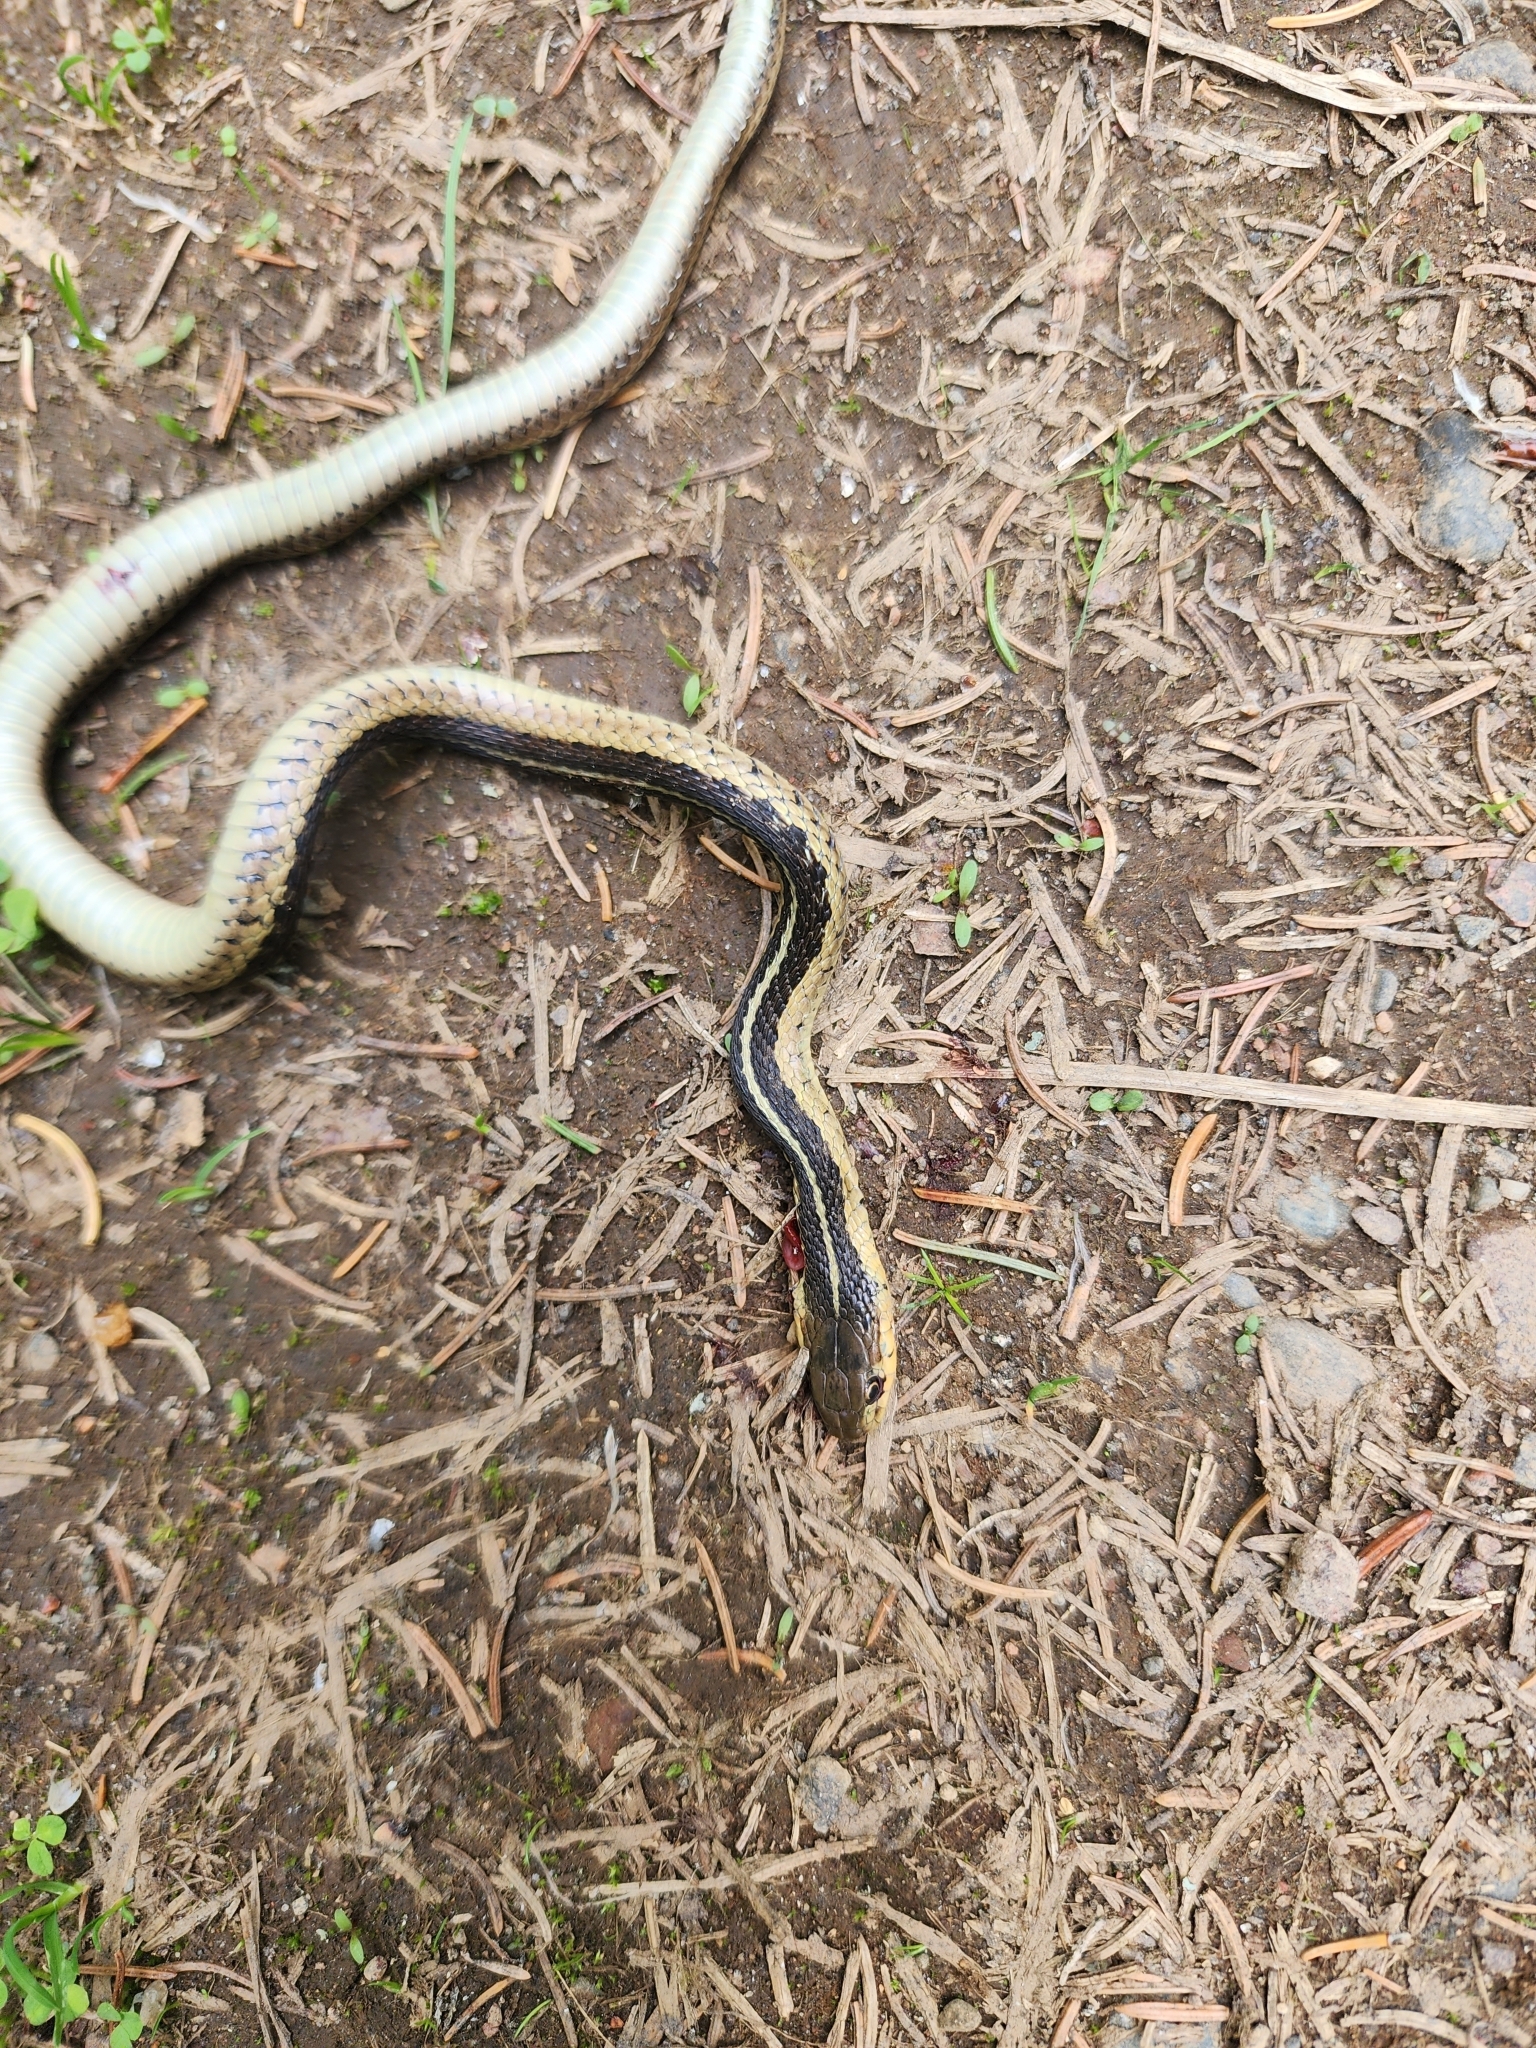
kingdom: Animalia
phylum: Chordata
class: Squamata
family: Colubridae
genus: Thamnophis
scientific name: Thamnophis sirtalis
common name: Common garter snake
